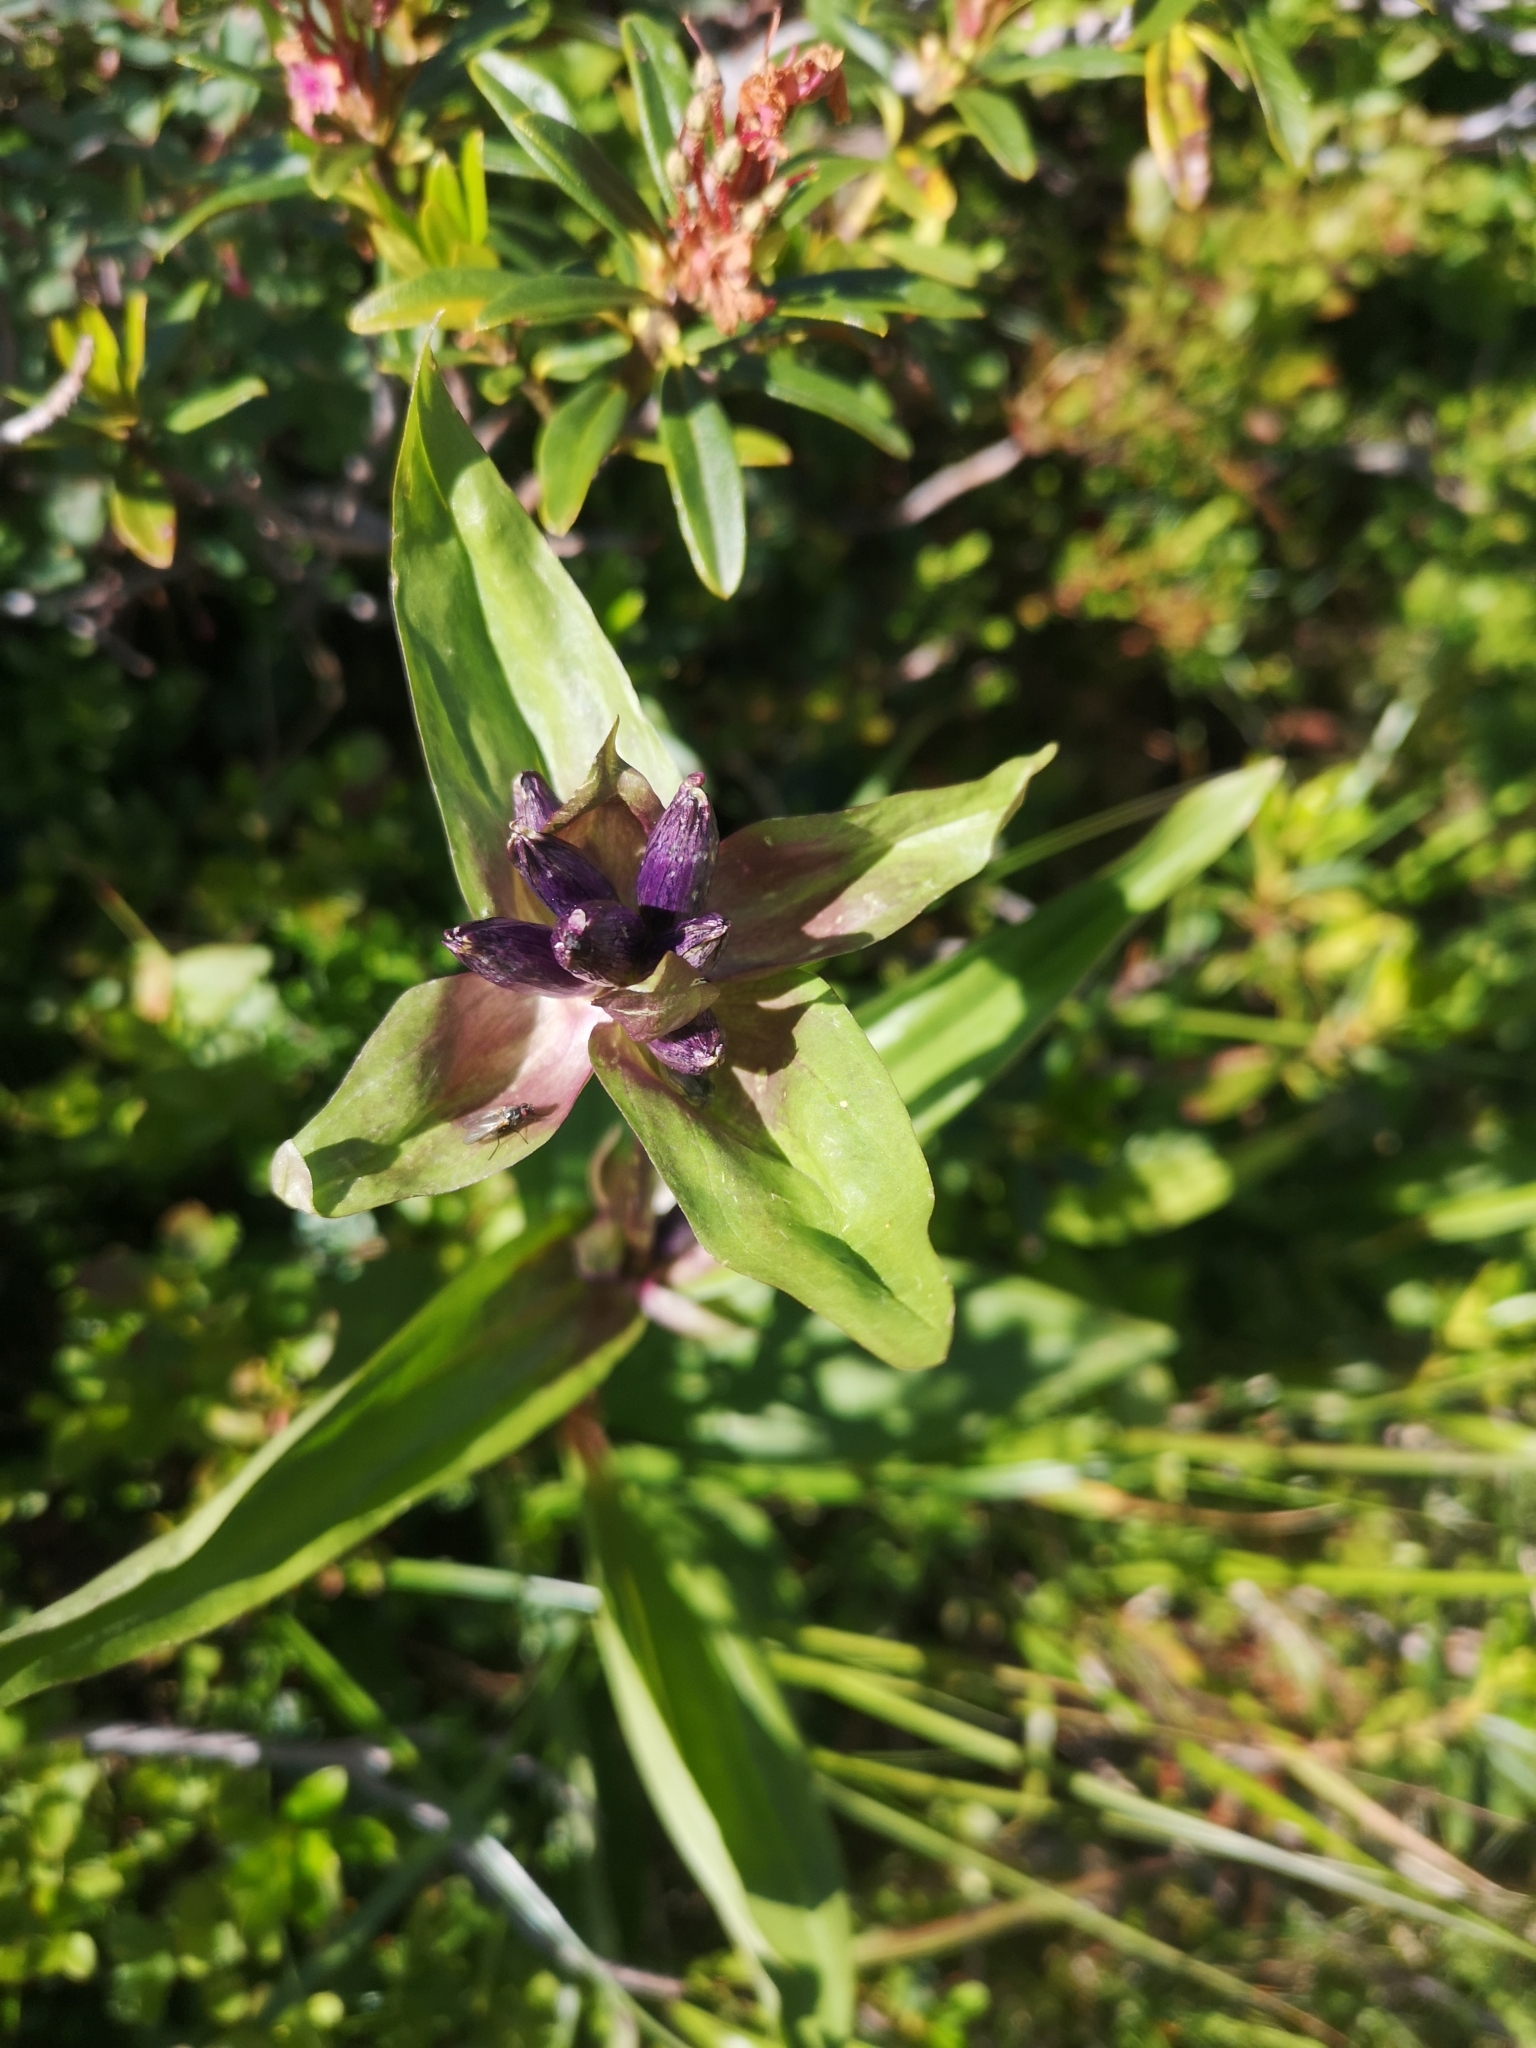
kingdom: Plantae
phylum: Tracheophyta
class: Magnoliopsida
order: Gentianales
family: Gentianaceae
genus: Gentiana
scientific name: Gentiana cruciata
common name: Cross gentian
